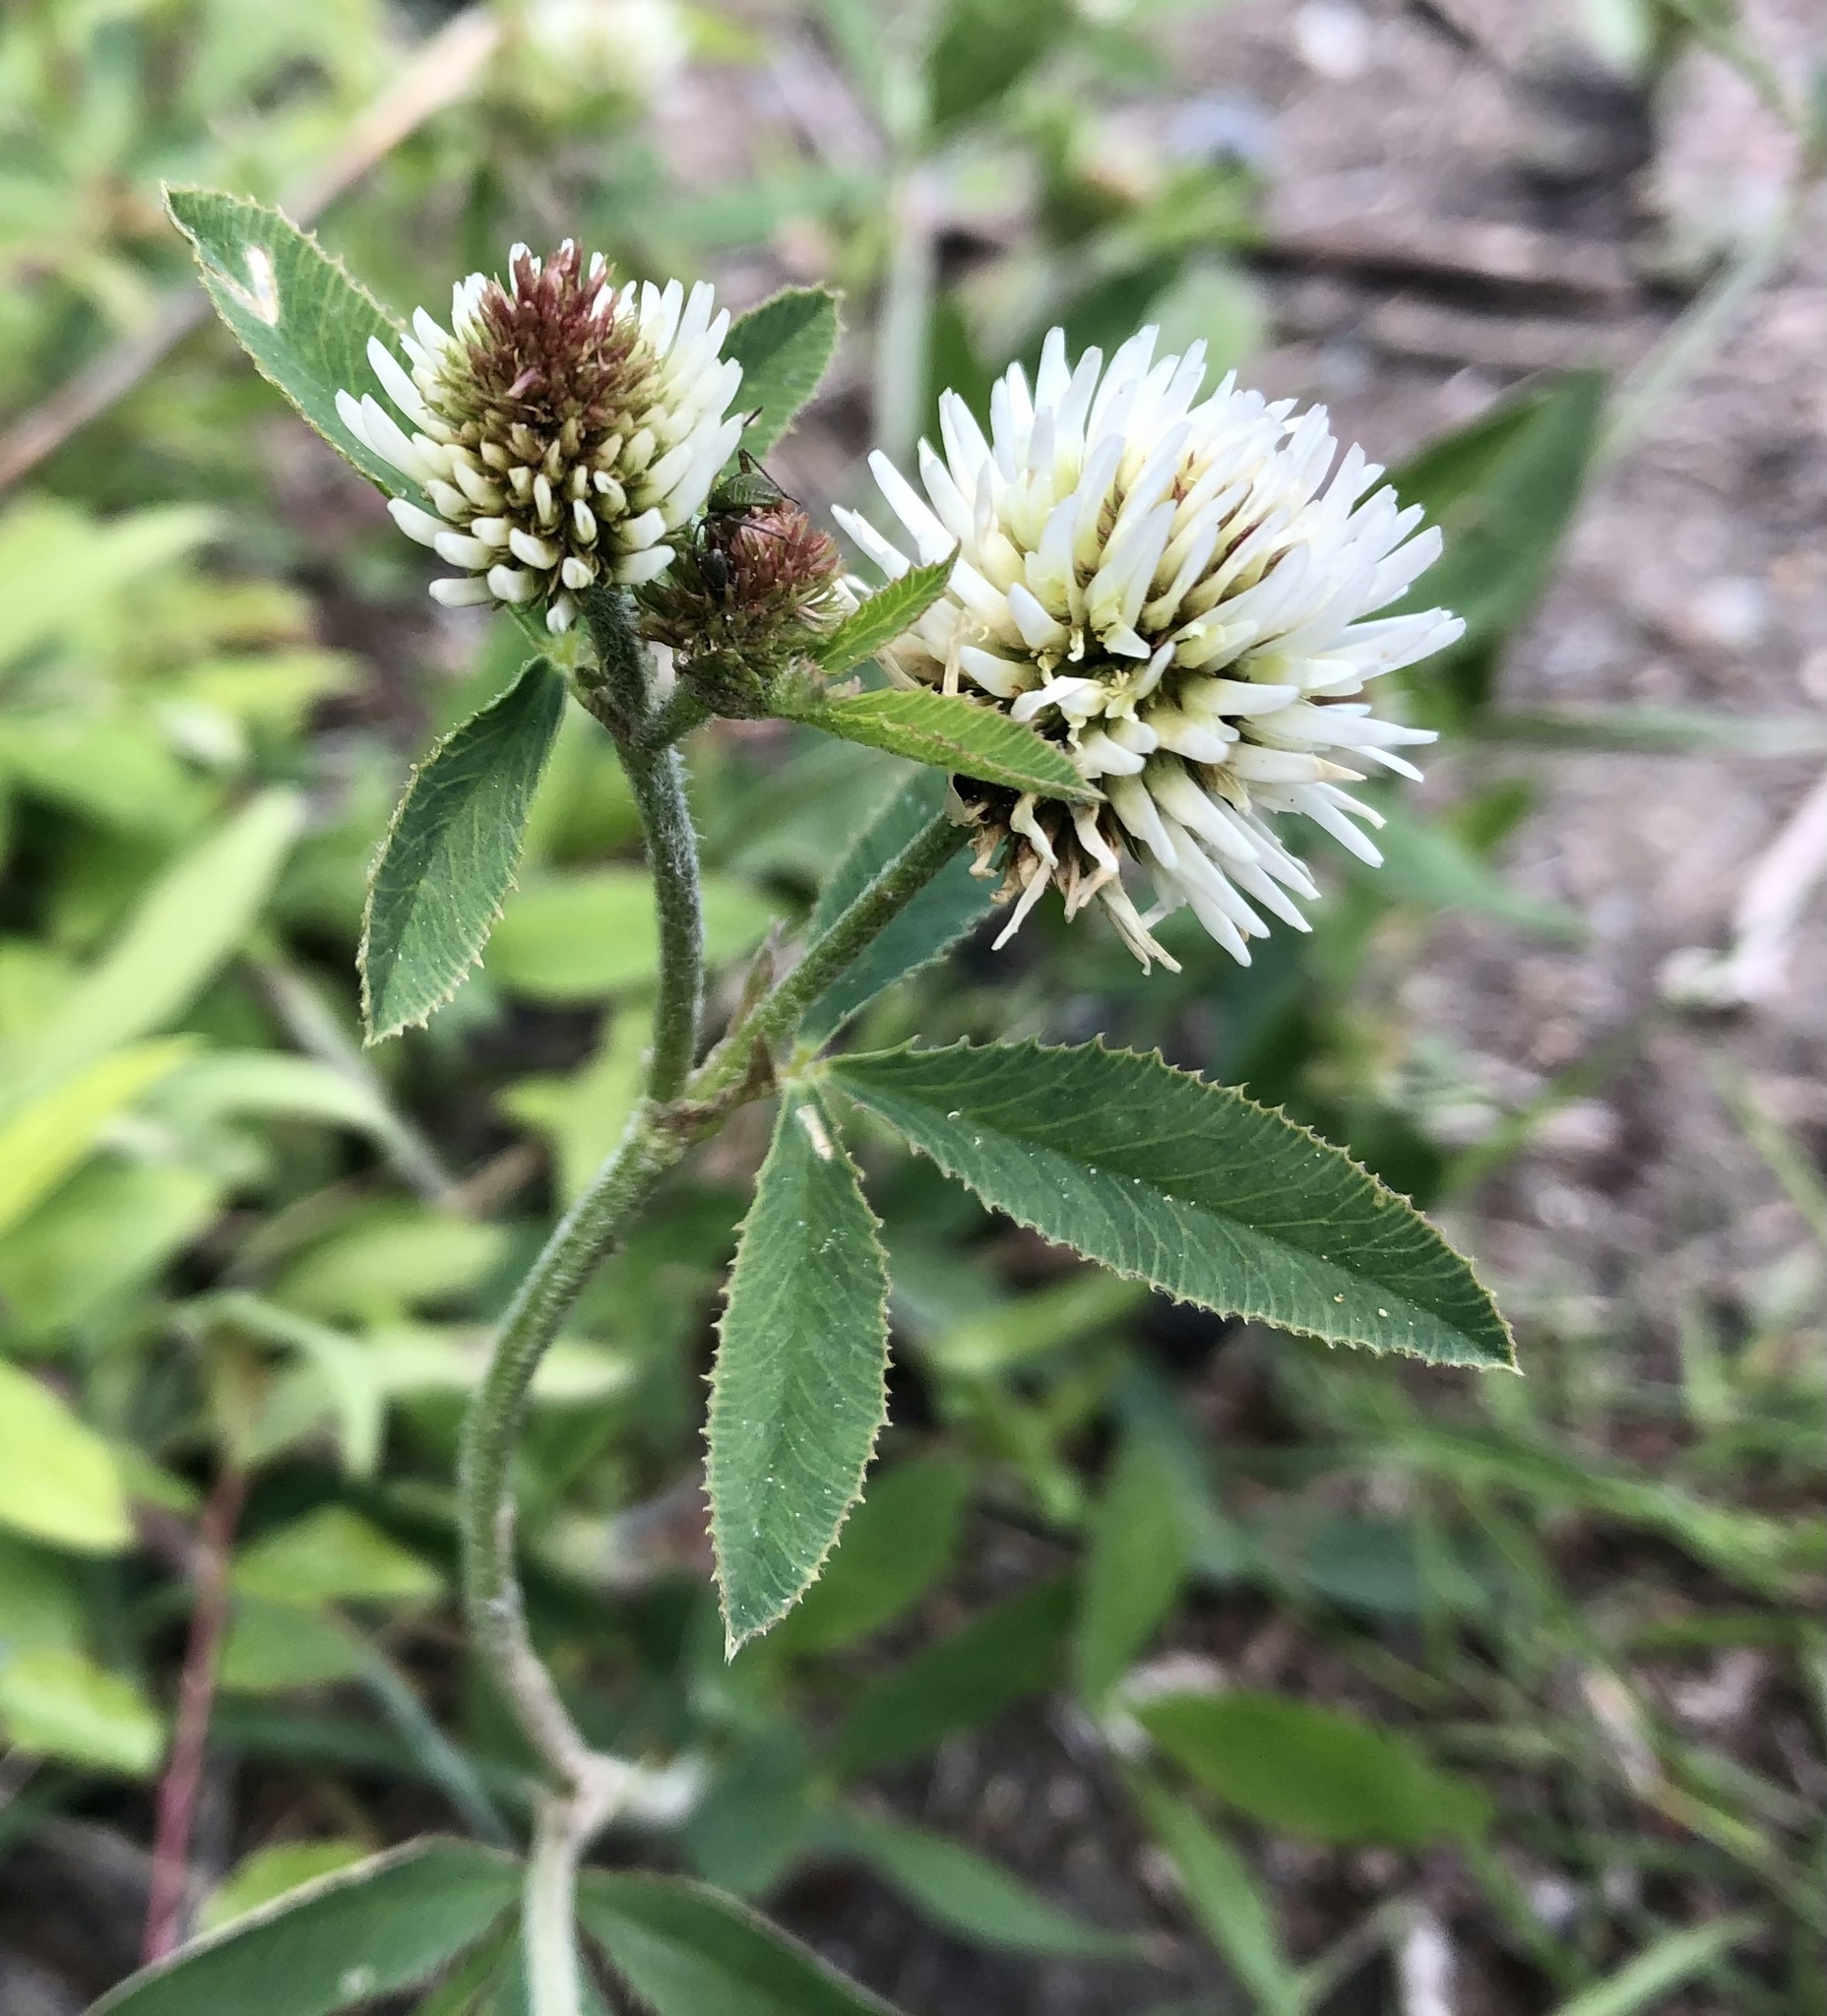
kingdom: Plantae
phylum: Tracheophyta
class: Magnoliopsida
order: Fabales
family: Fabaceae
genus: Trifolium
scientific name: Trifolium montanum
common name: Mountain clover
